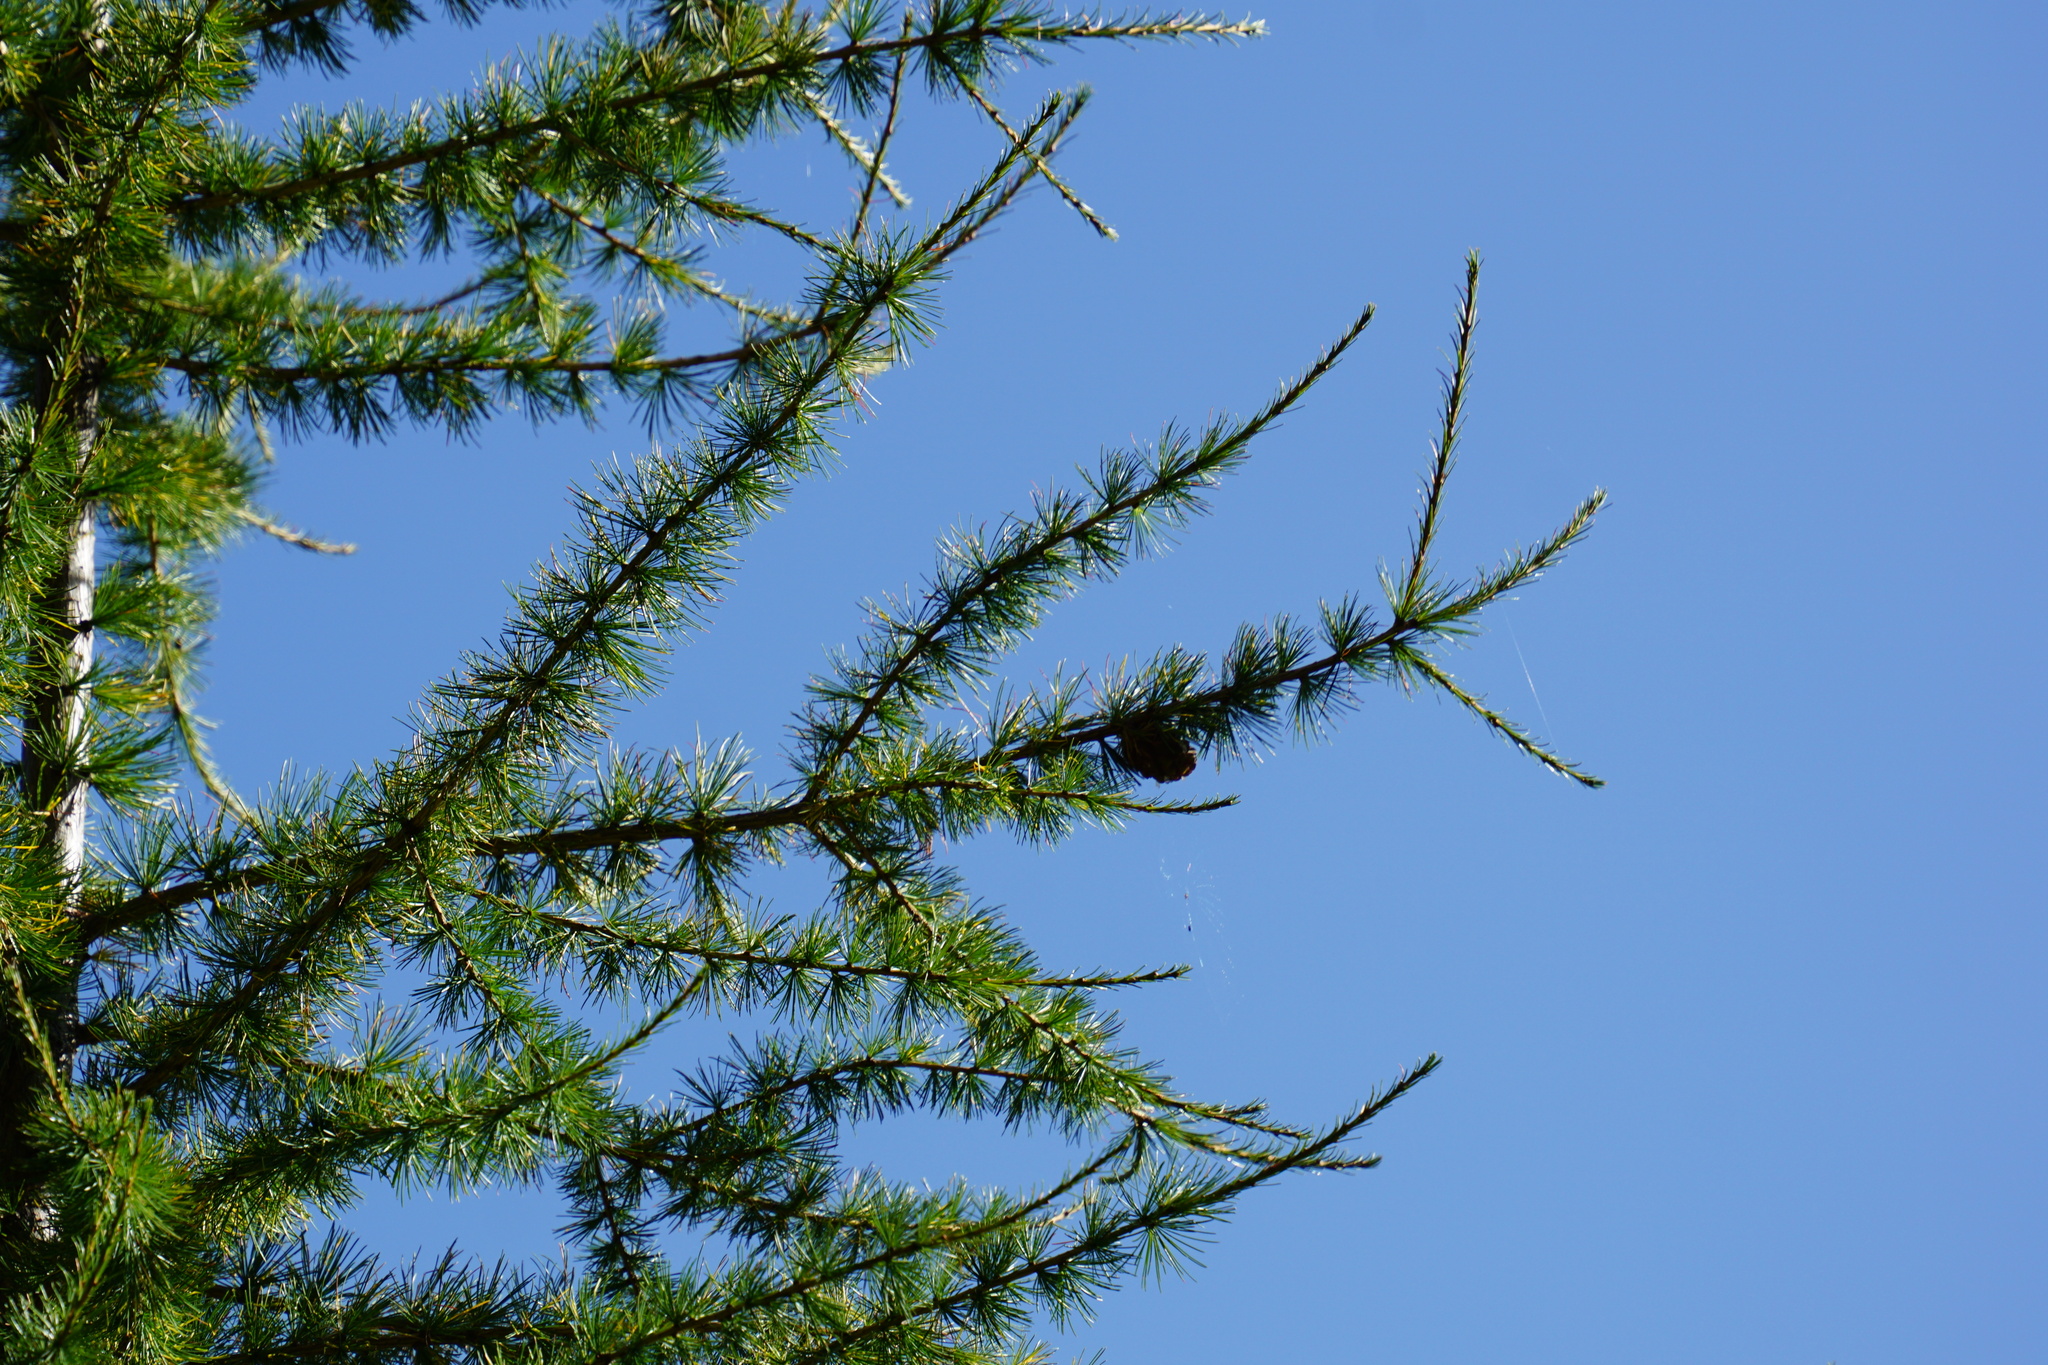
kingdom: Plantae
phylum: Tracheophyta
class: Pinopsida
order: Pinales
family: Pinaceae
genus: Larix
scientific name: Larix decidua
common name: European larch
